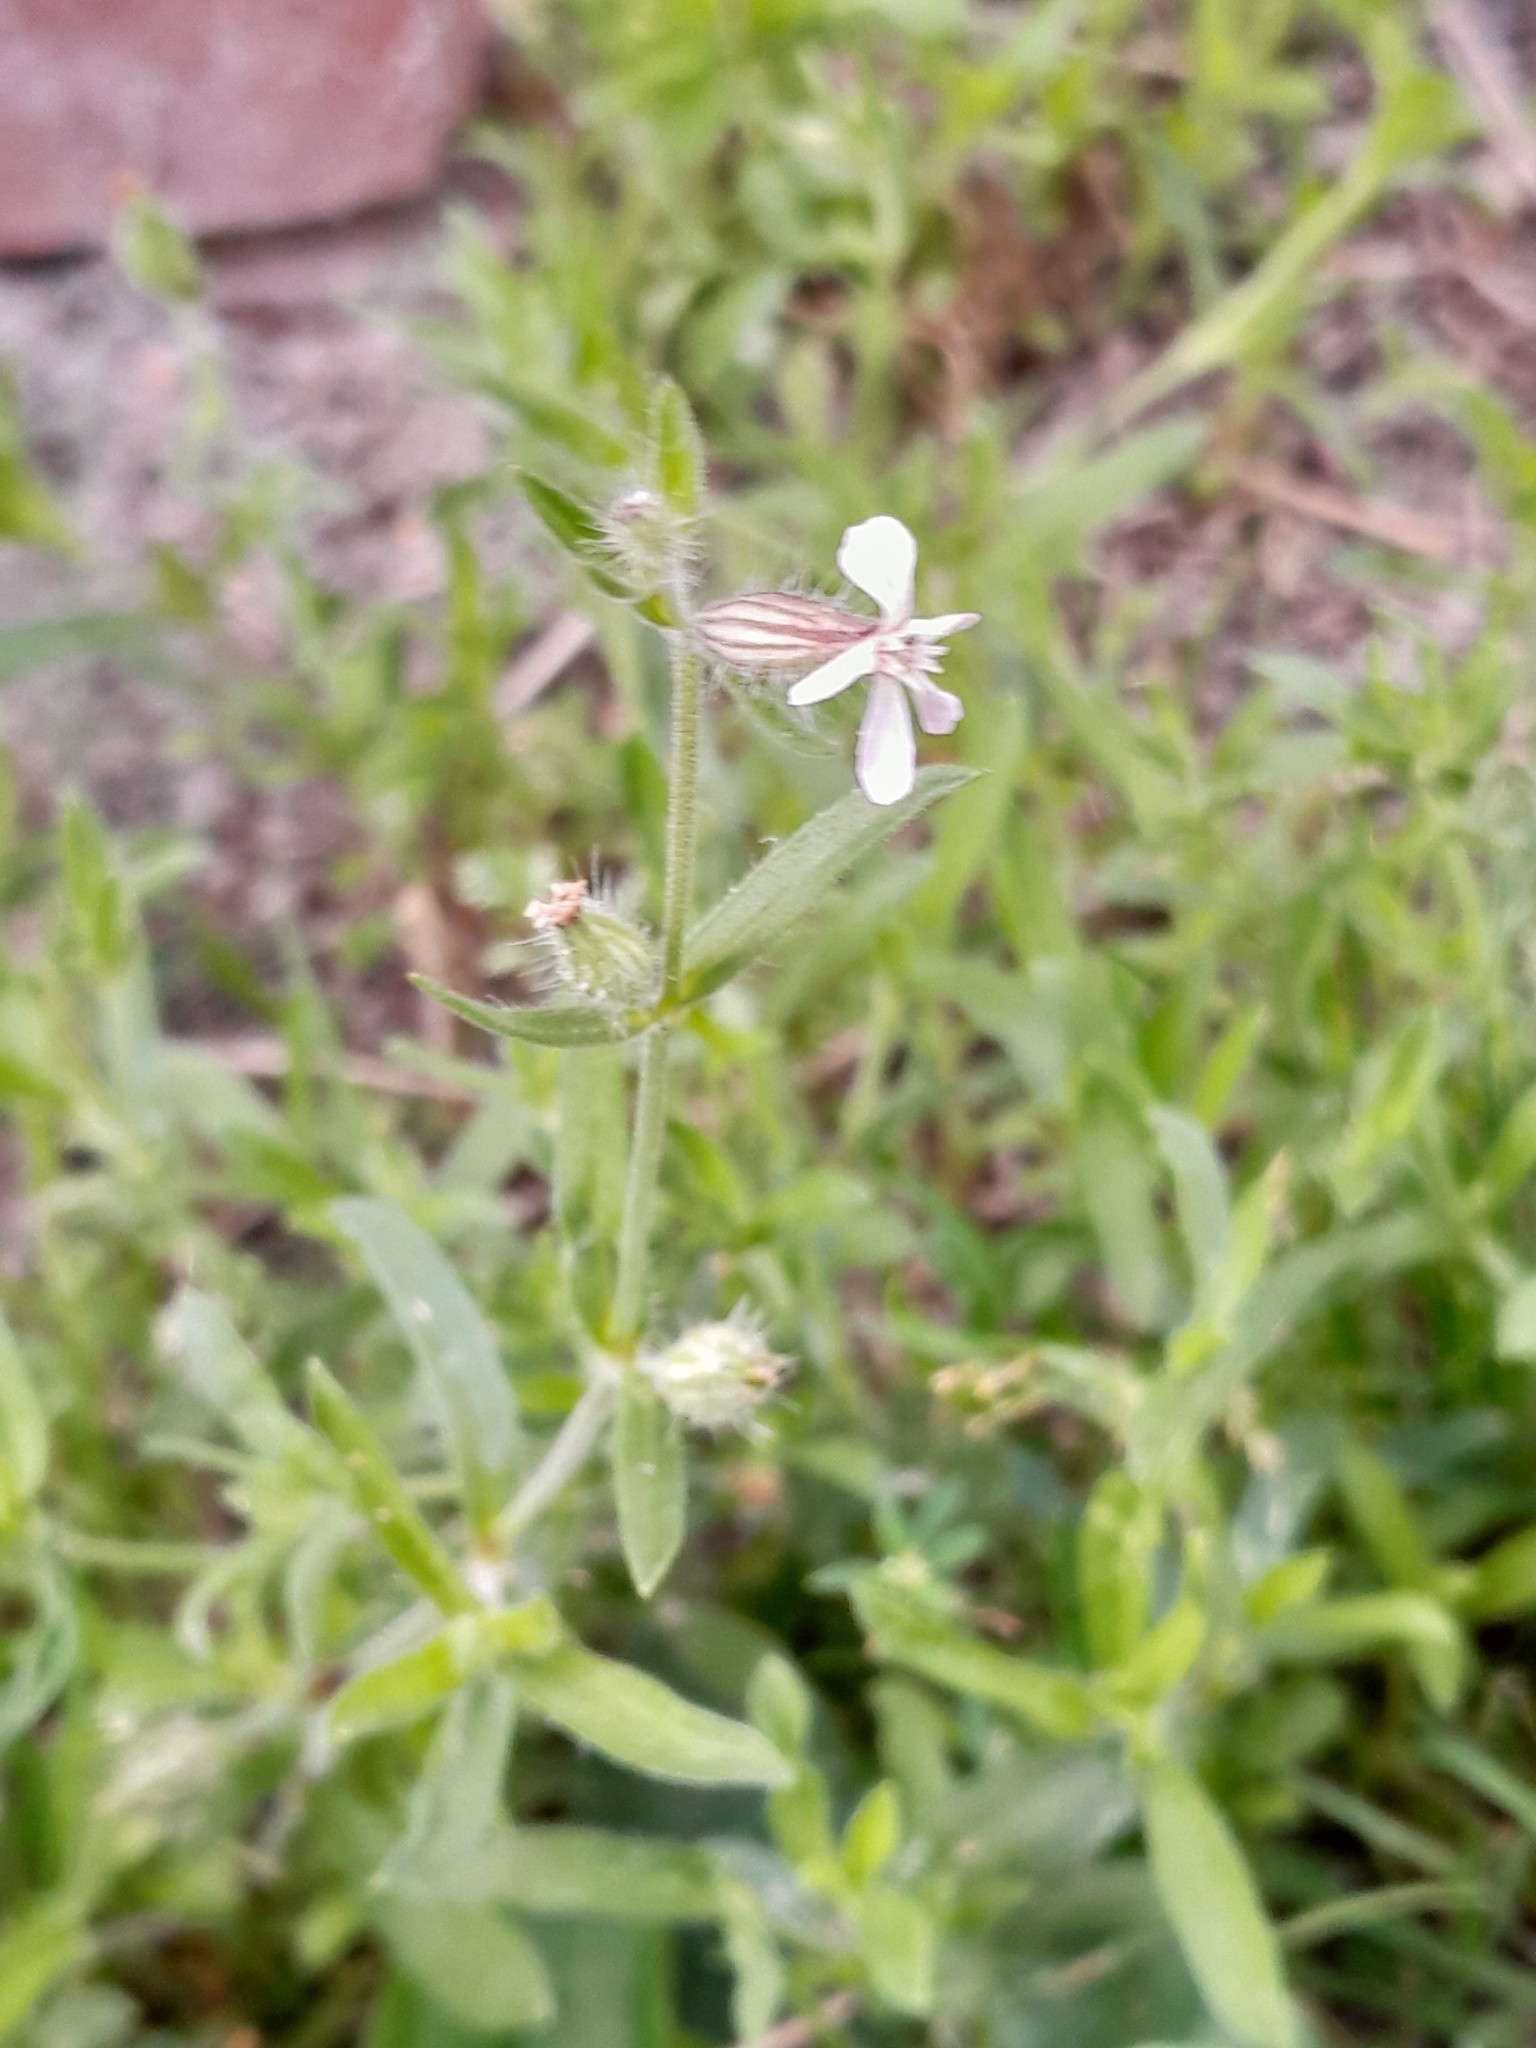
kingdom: Plantae
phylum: Tracheophyta
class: Magnoliopsida
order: Caryophyllales
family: Caryophyllaceae
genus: Silene
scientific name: Silene latifolia
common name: White campion
